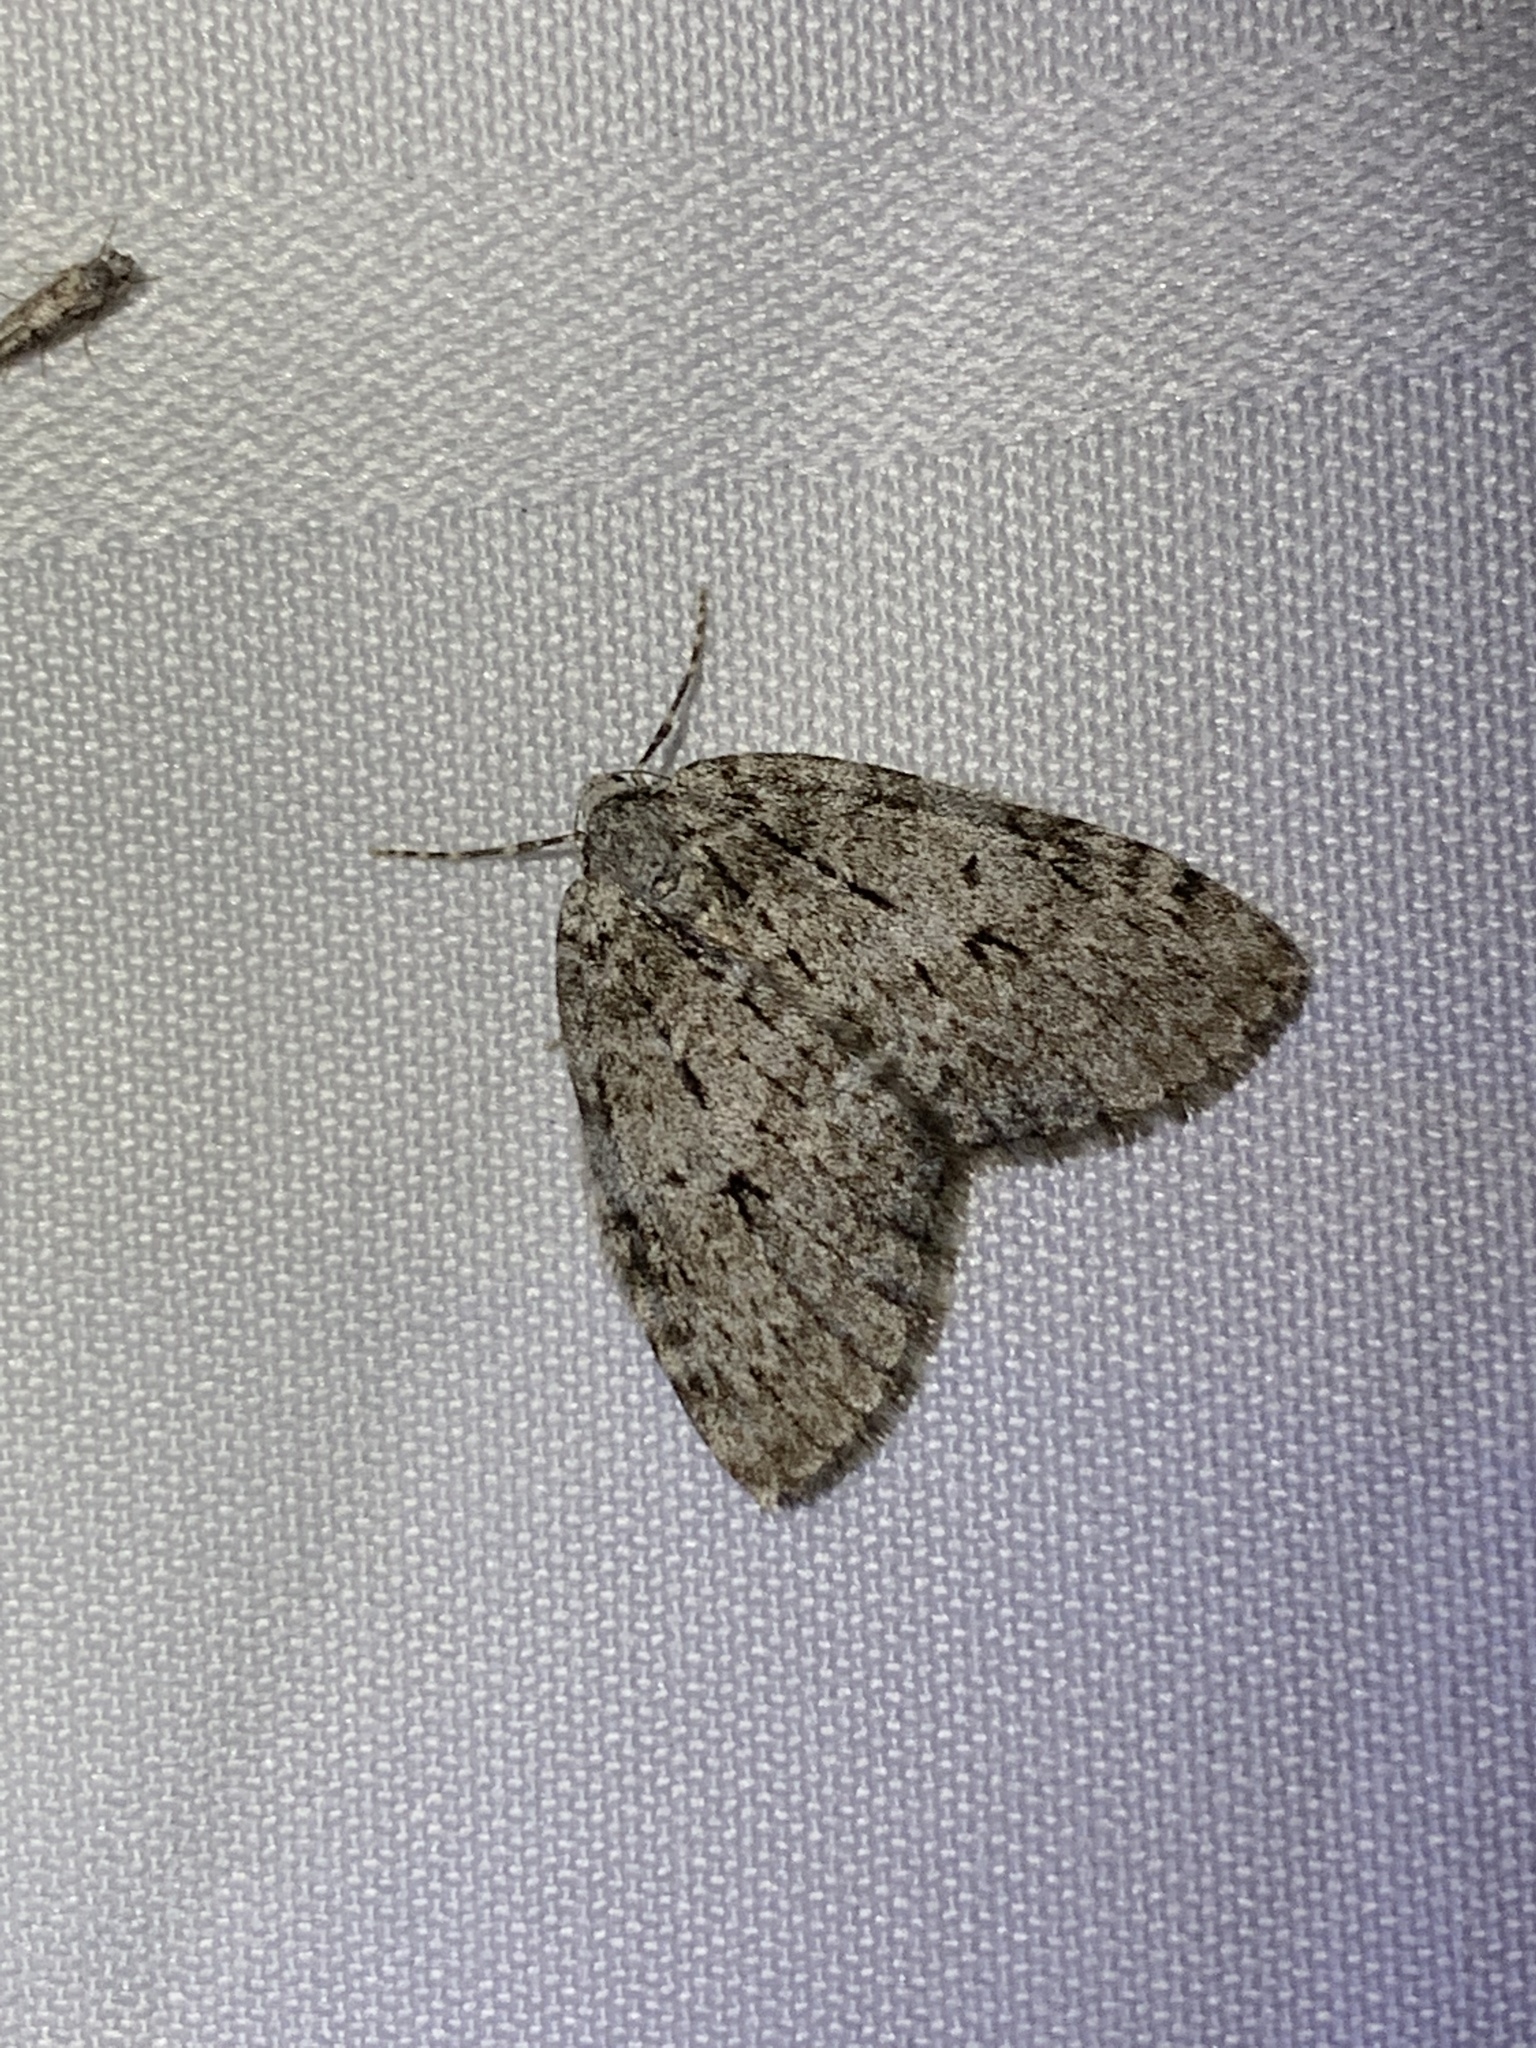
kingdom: Animalia
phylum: Arthropoda
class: Insecta
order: Lepidoptera
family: Geometridae
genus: Epirrita
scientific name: Epirrita autumnata
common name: Autumnal moth
